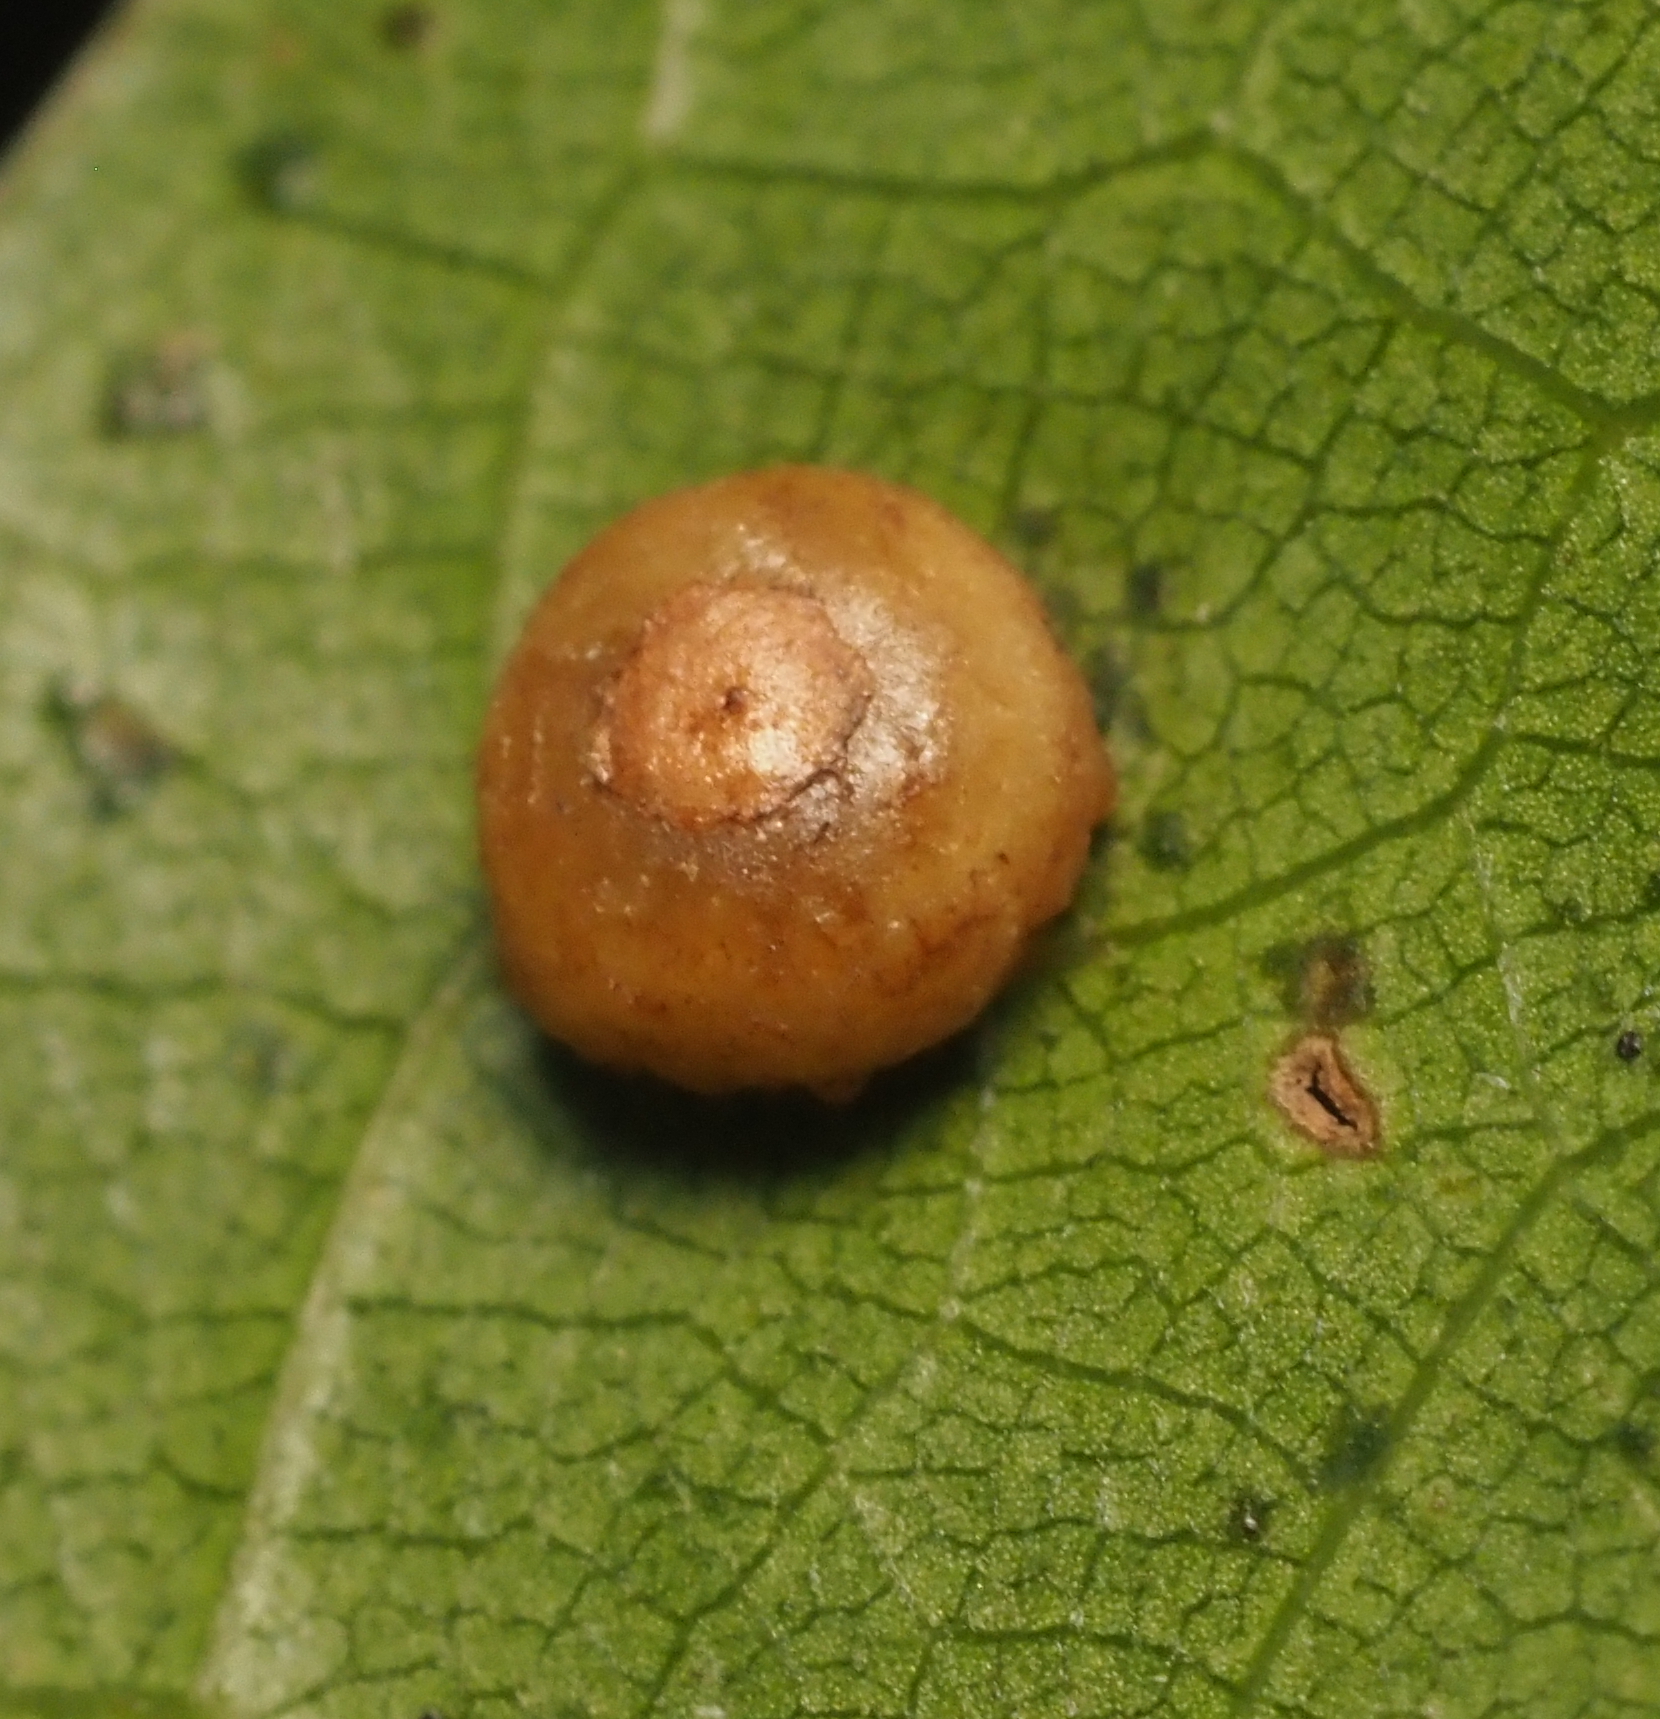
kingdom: Animalia
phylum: Arthropoda
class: Insecta
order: Diptera
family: Cecidomyiidae
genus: Polystepha
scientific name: Polystepha globosa
